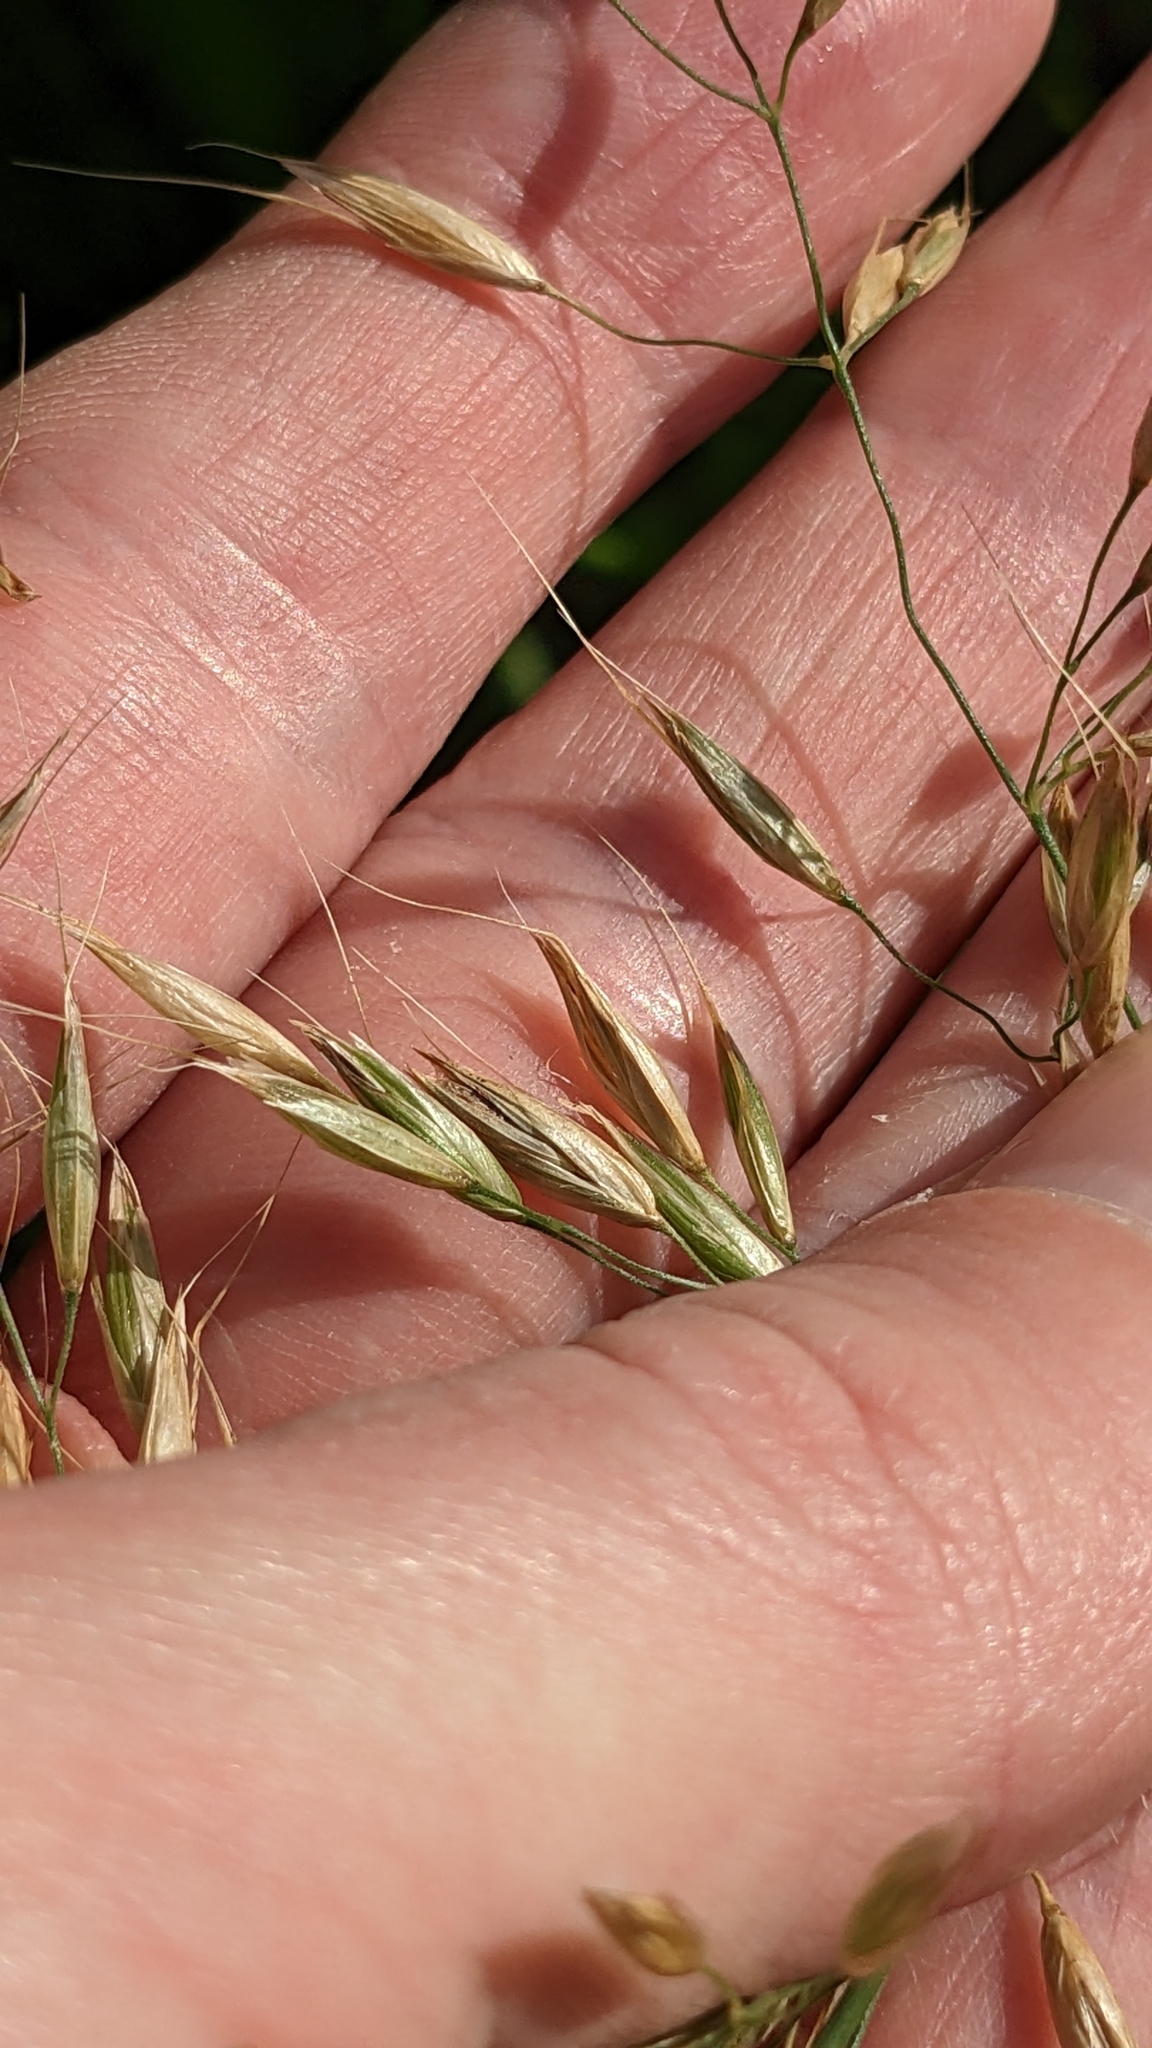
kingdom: Plantae
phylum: Tracheophyta
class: Liliopsida
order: Poales
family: Poaceae
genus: Arrhenatherum
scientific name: Arrhenatherum elatius
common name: Tall oatgrass
